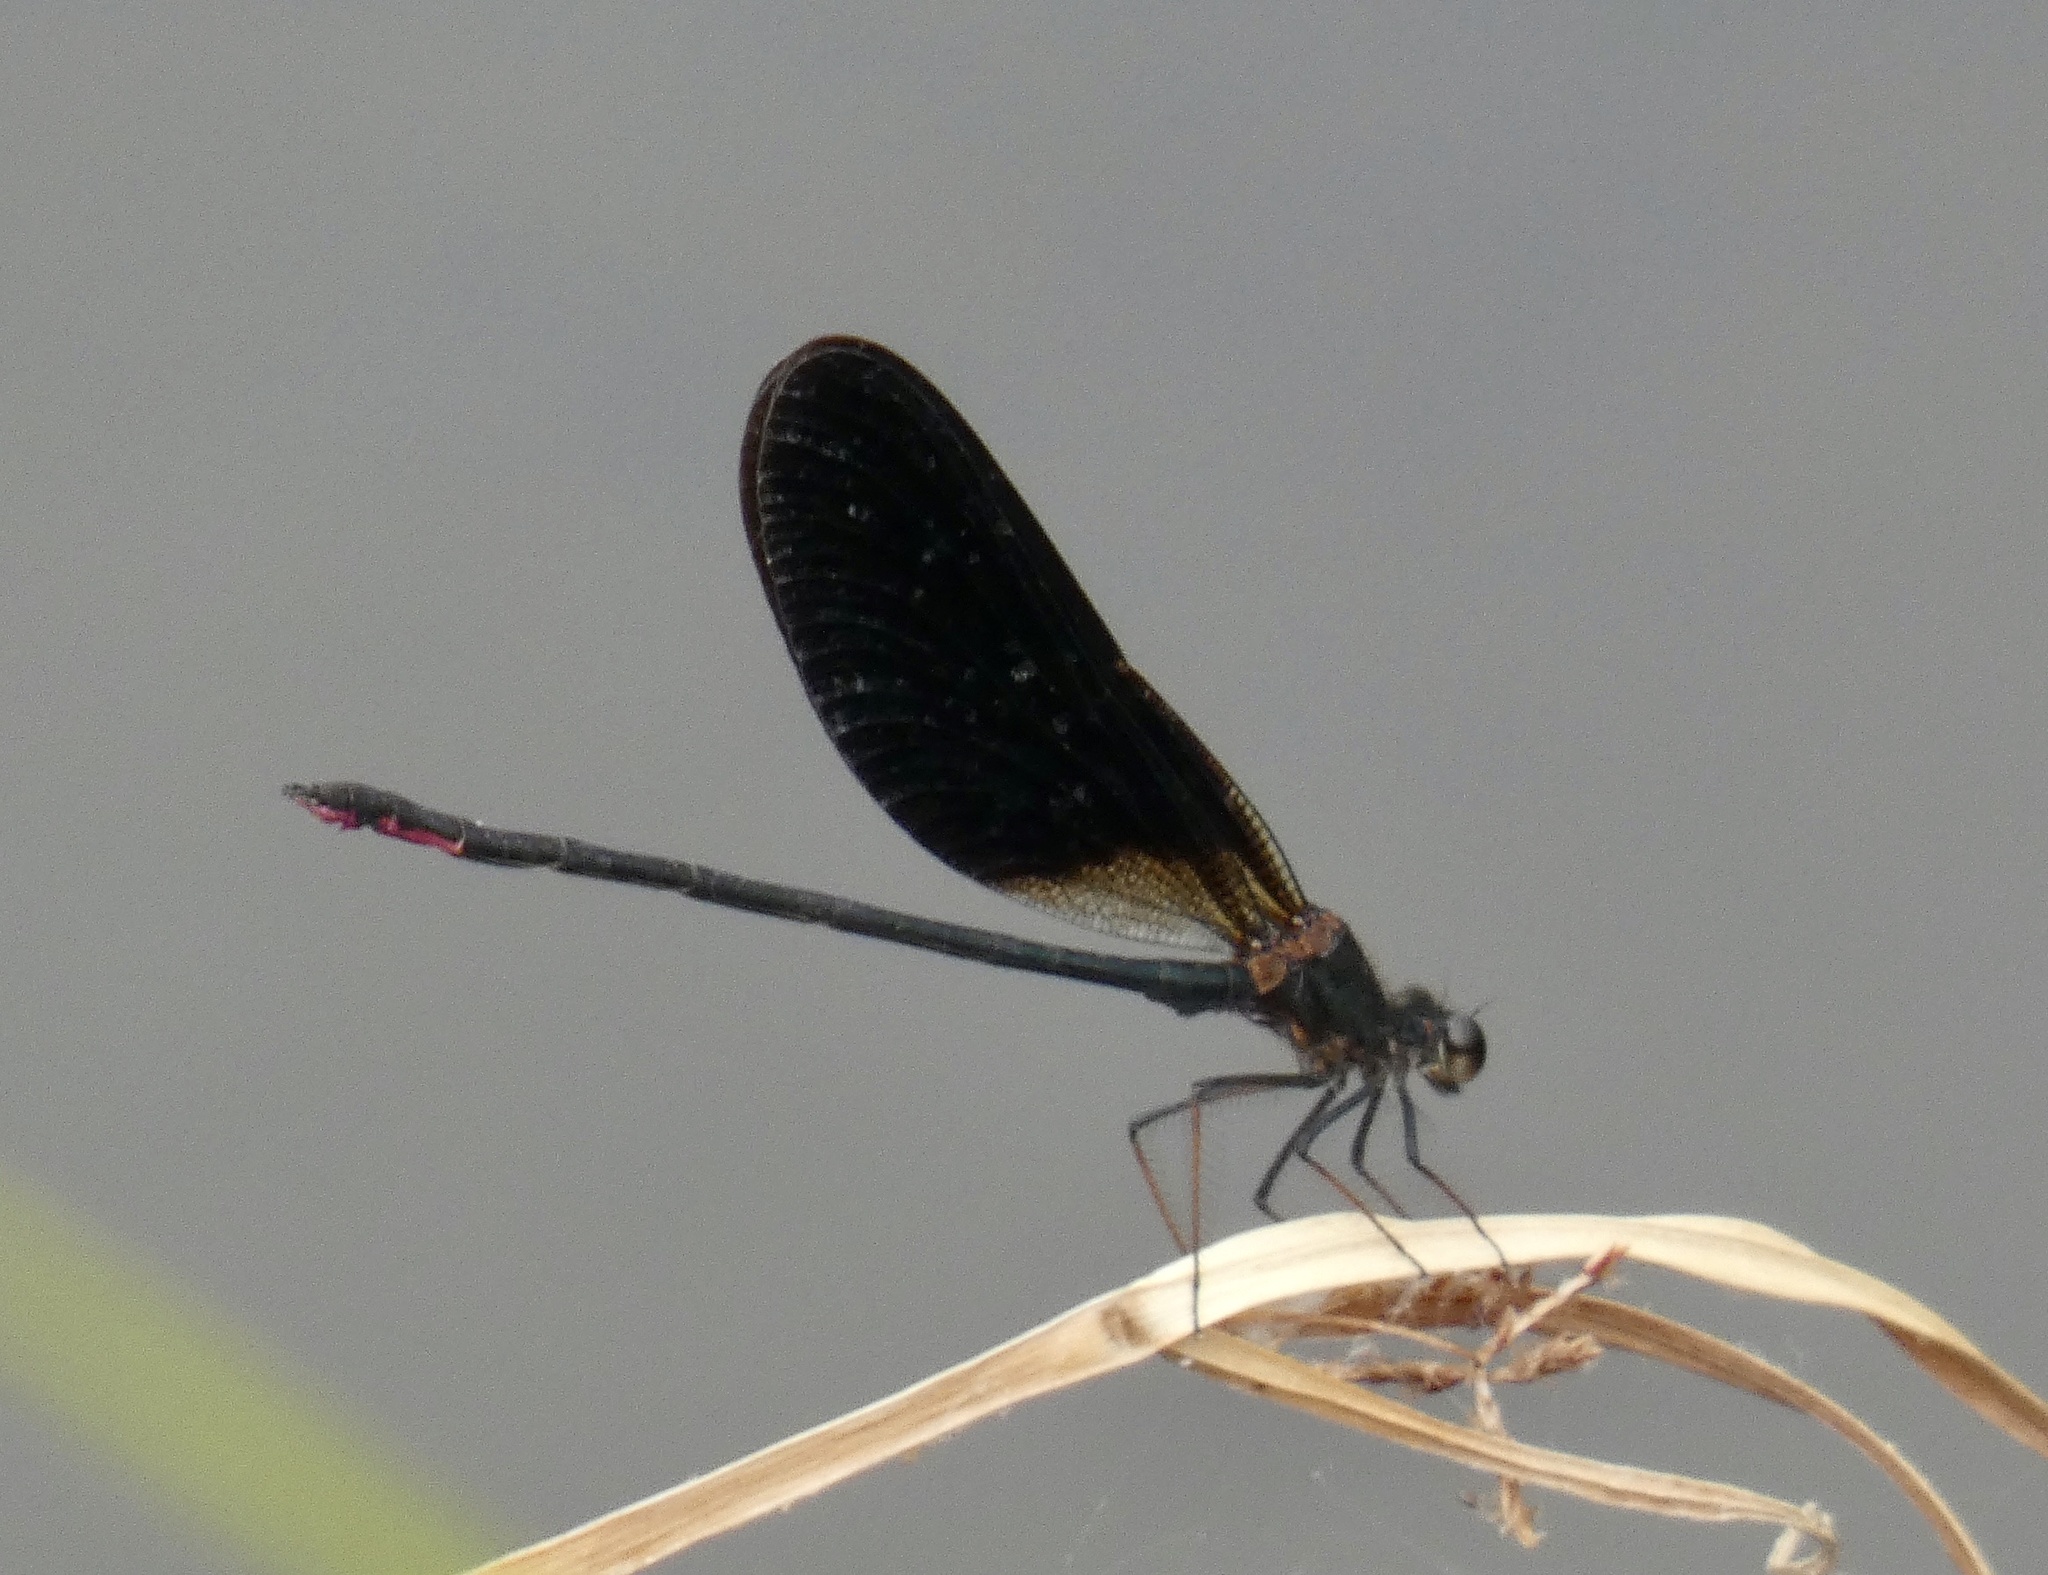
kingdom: Animalia
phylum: Arthropoda
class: Insecta
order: Odonata
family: Calopterygidae
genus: Calopteryx
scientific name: Calopteryx haemorrhoidalis
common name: Copper demoiselle
